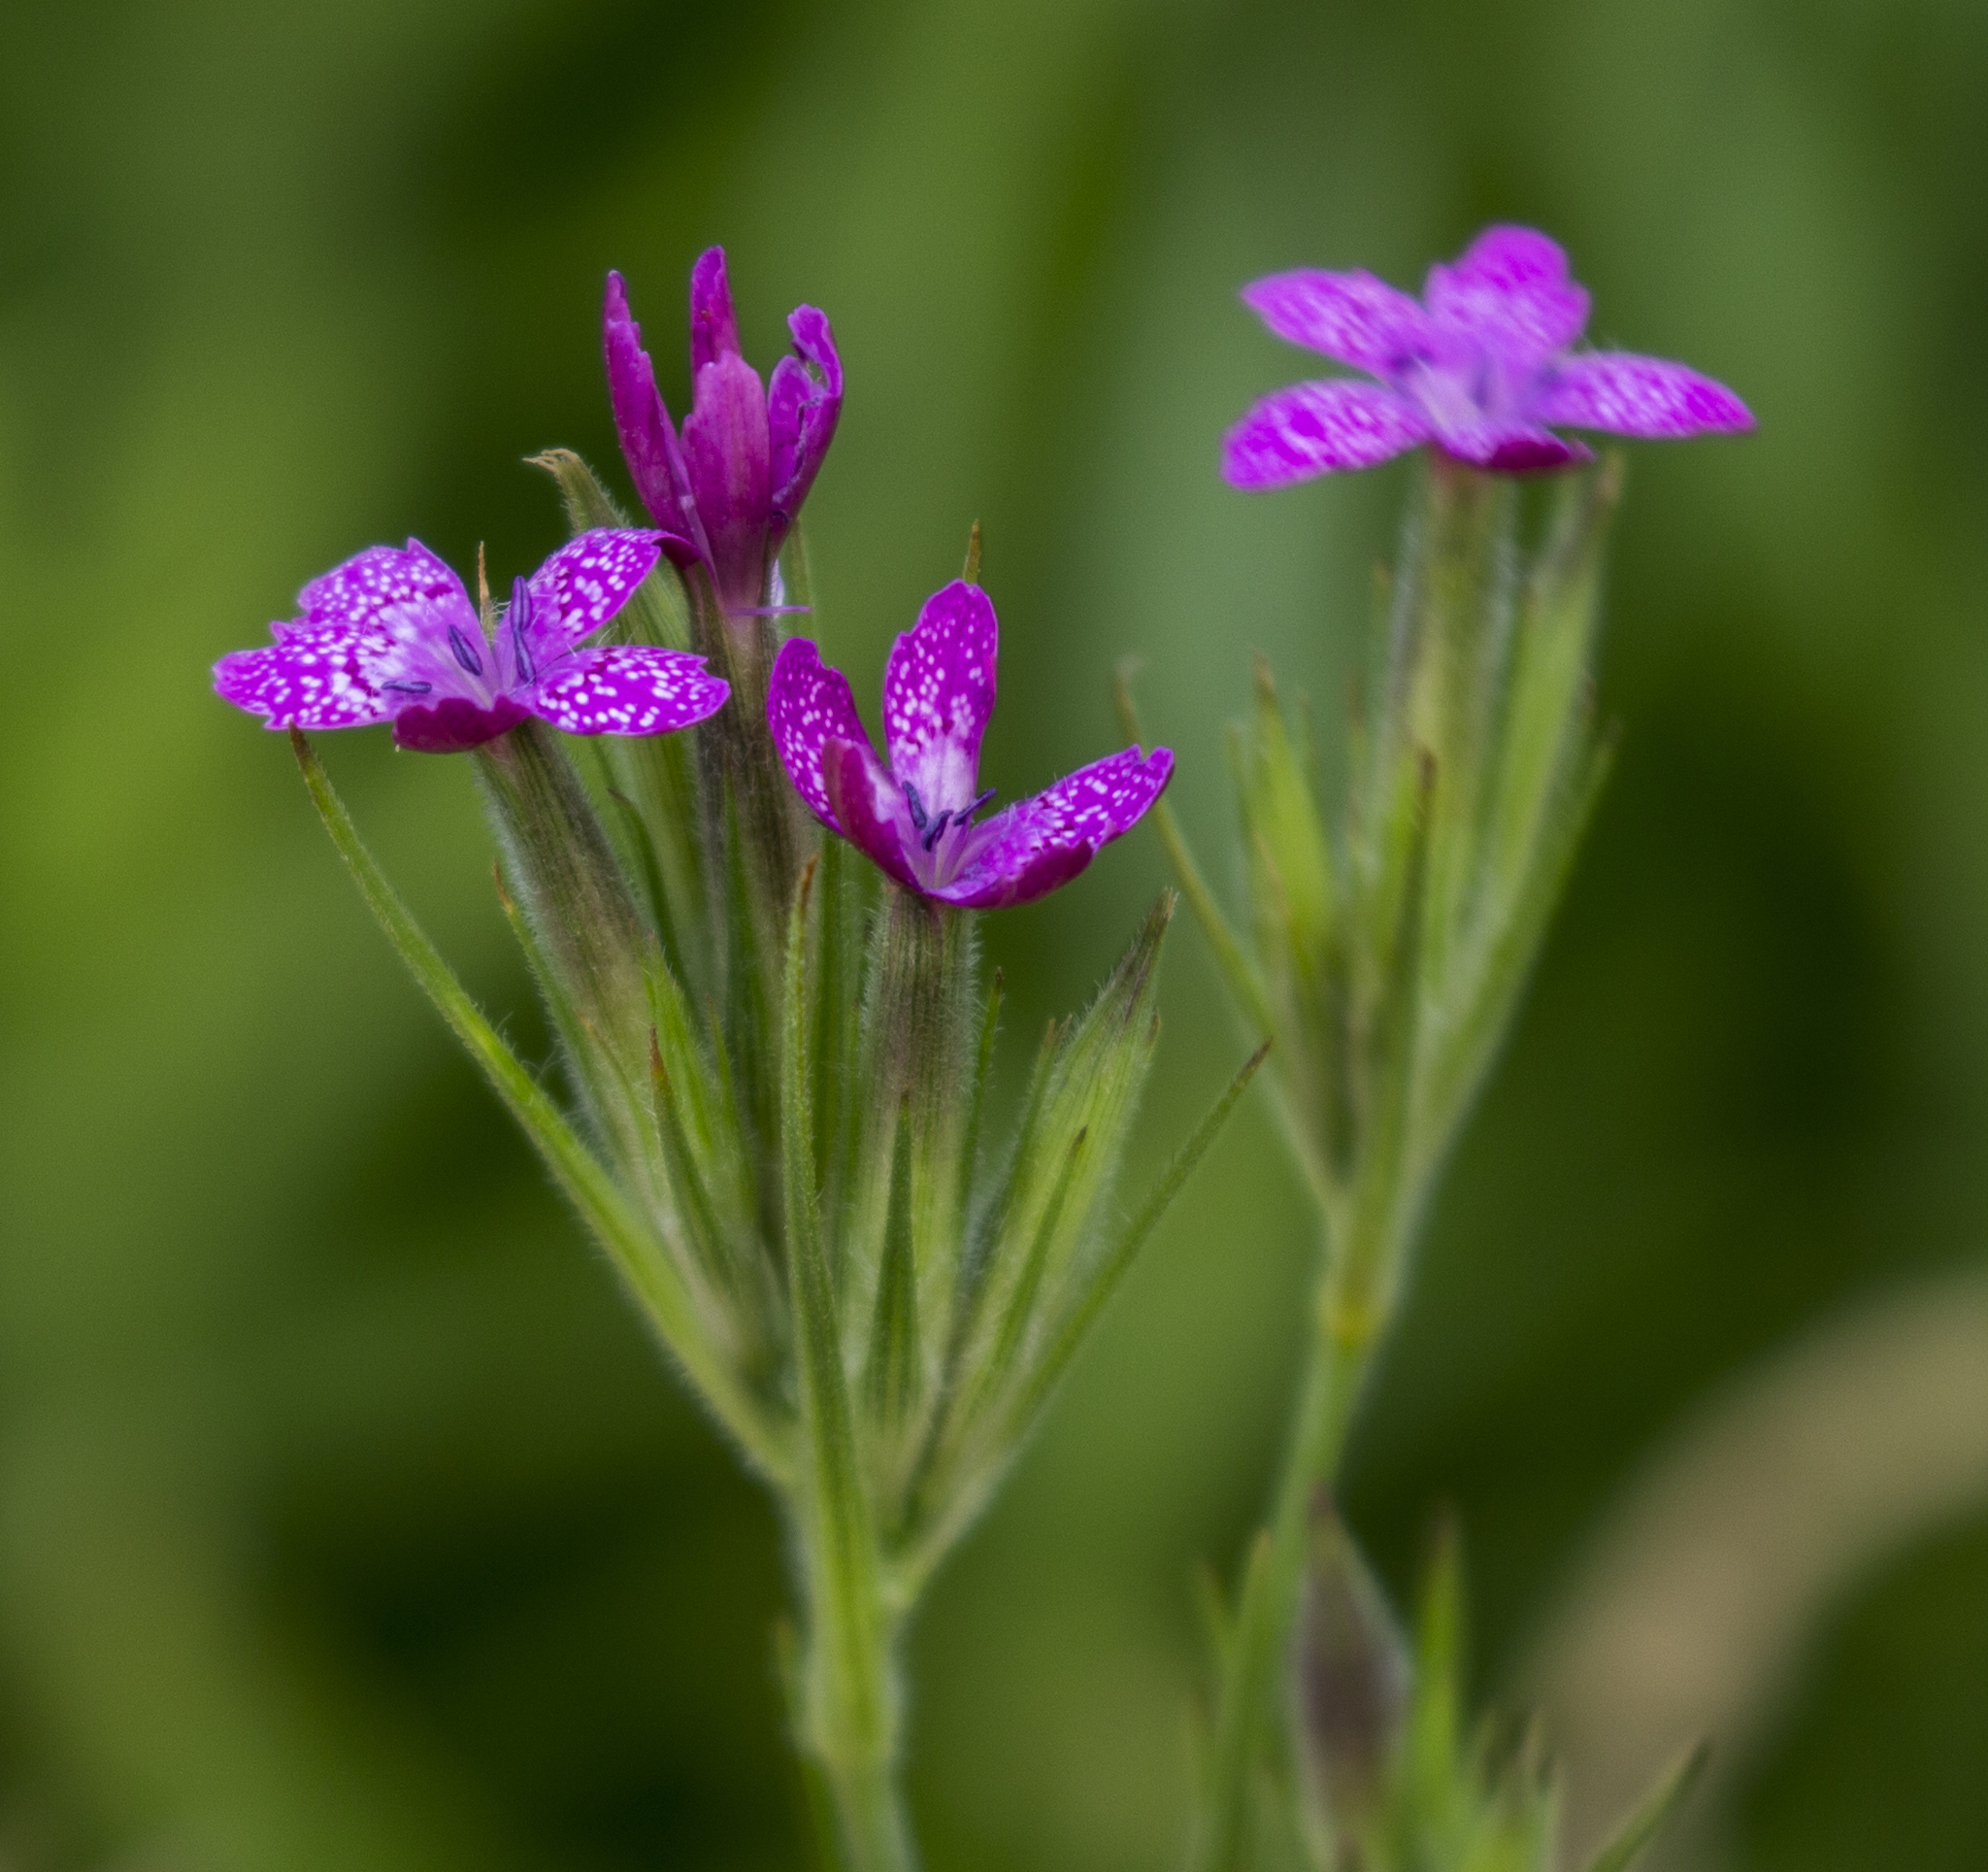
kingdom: Plantae
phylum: Tracheophyta
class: Magnoliopsida
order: Caryophyllales
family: Caryophyllaceae
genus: Dianthus
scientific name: Dianthus armeria
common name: Deptford pink
